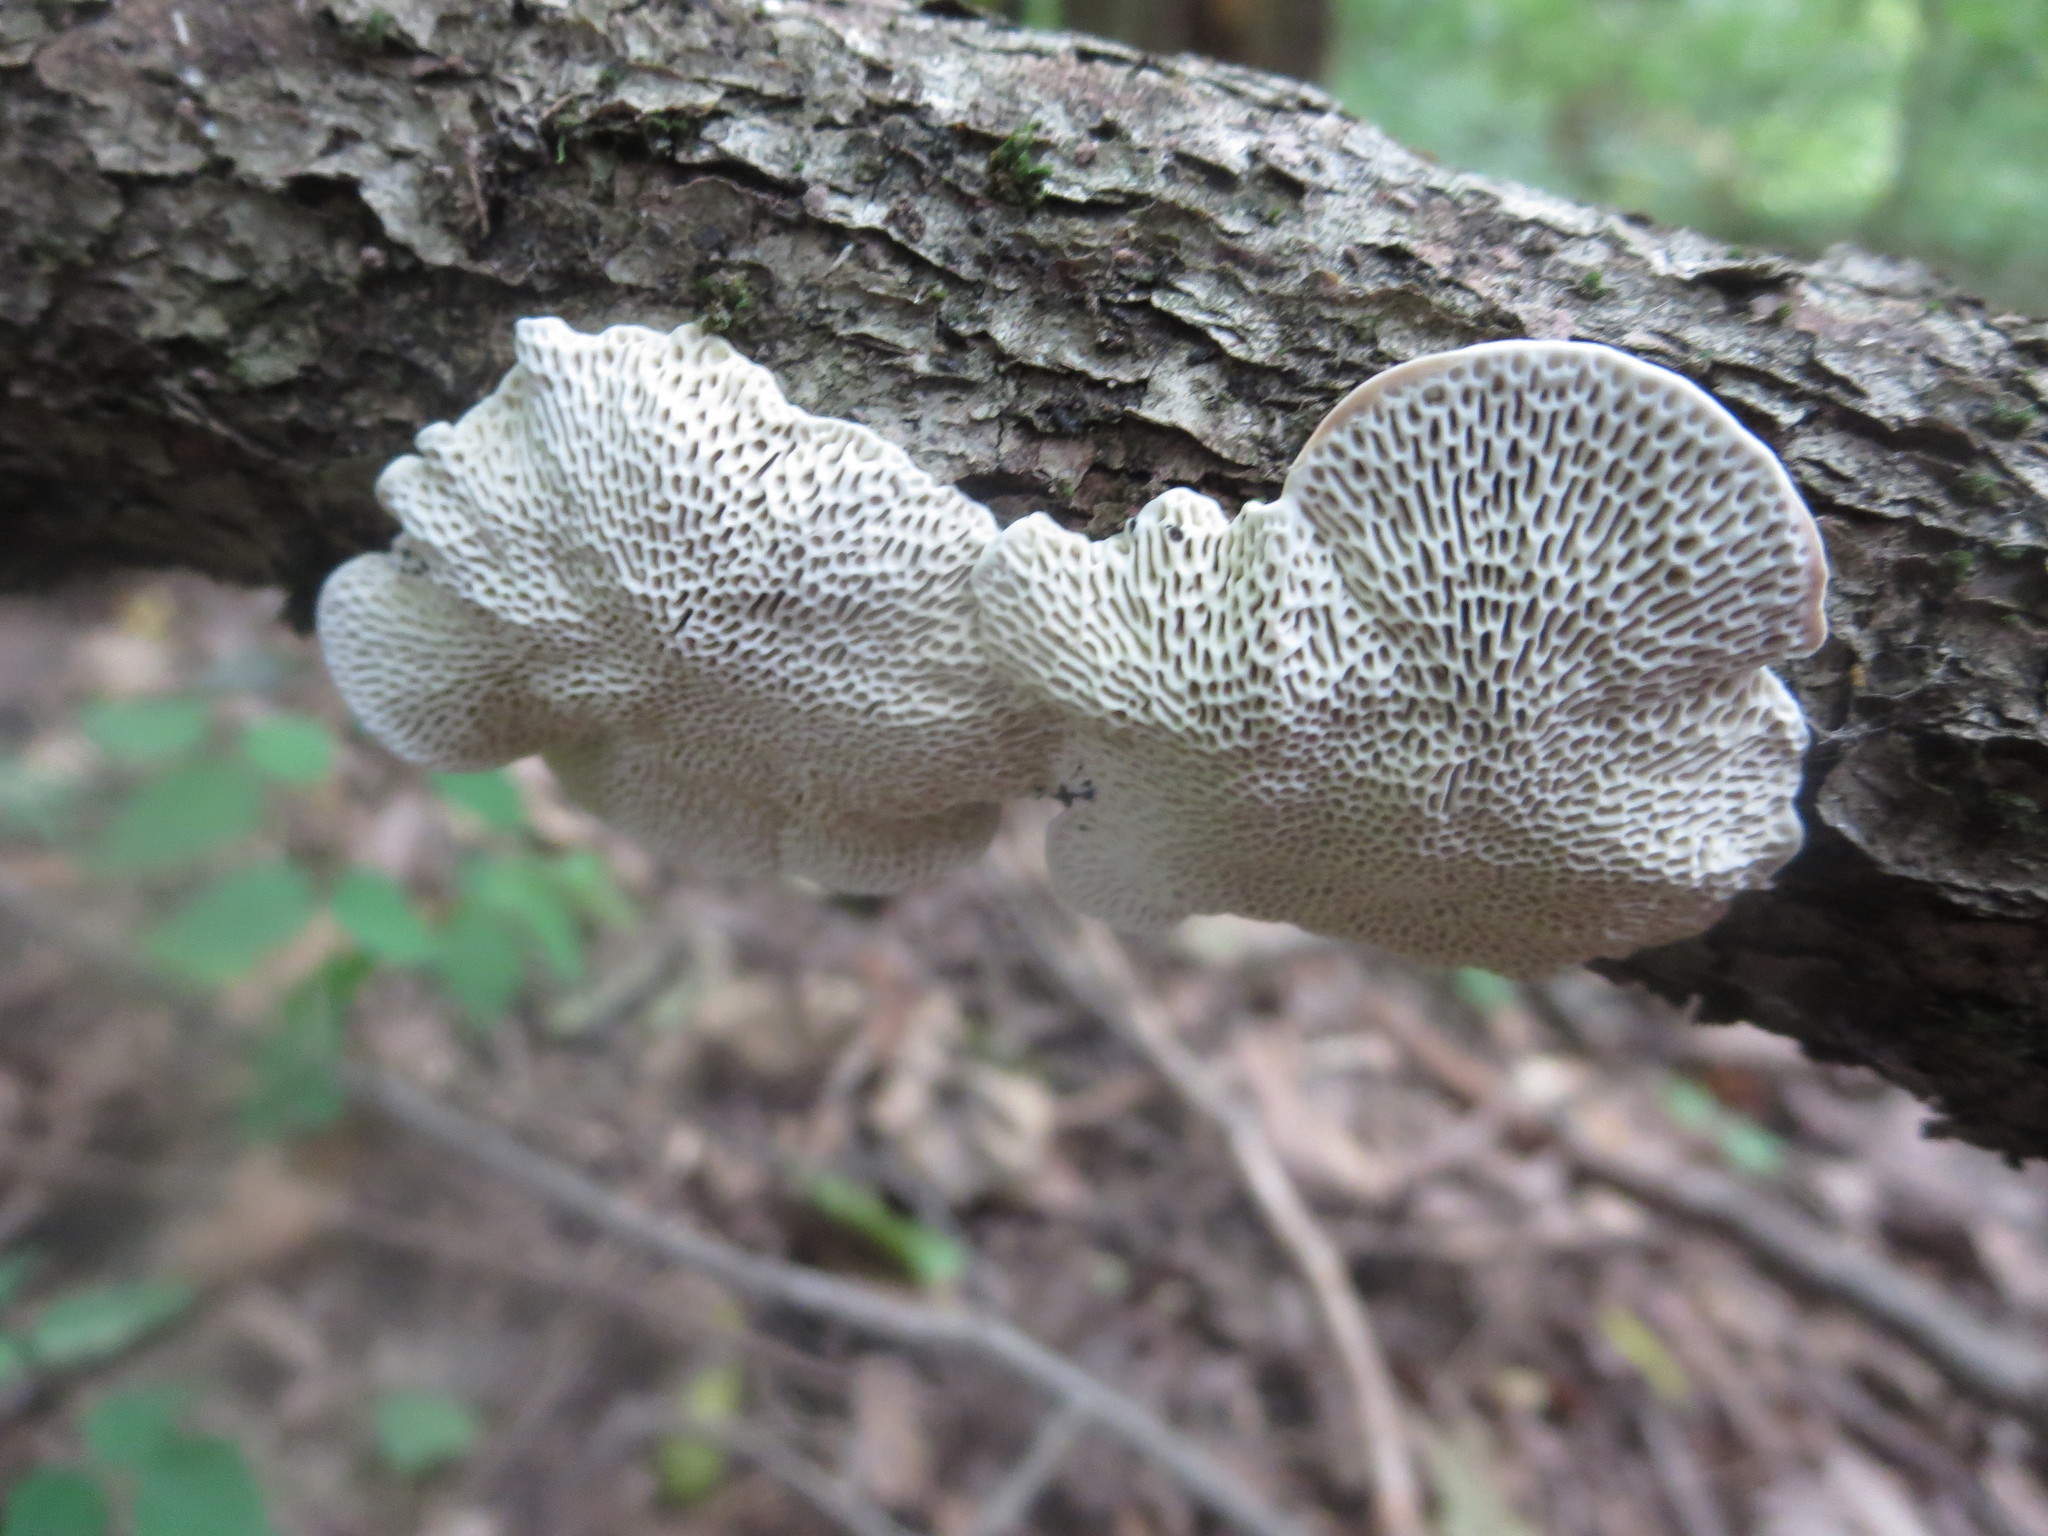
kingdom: Fungi
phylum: Basidiomycota
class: Agaricomycetes
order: Polyporales
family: Polyporaceae
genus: Daedaleopsis
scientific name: Daedaleopsis confragosa
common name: Blushing bracket
